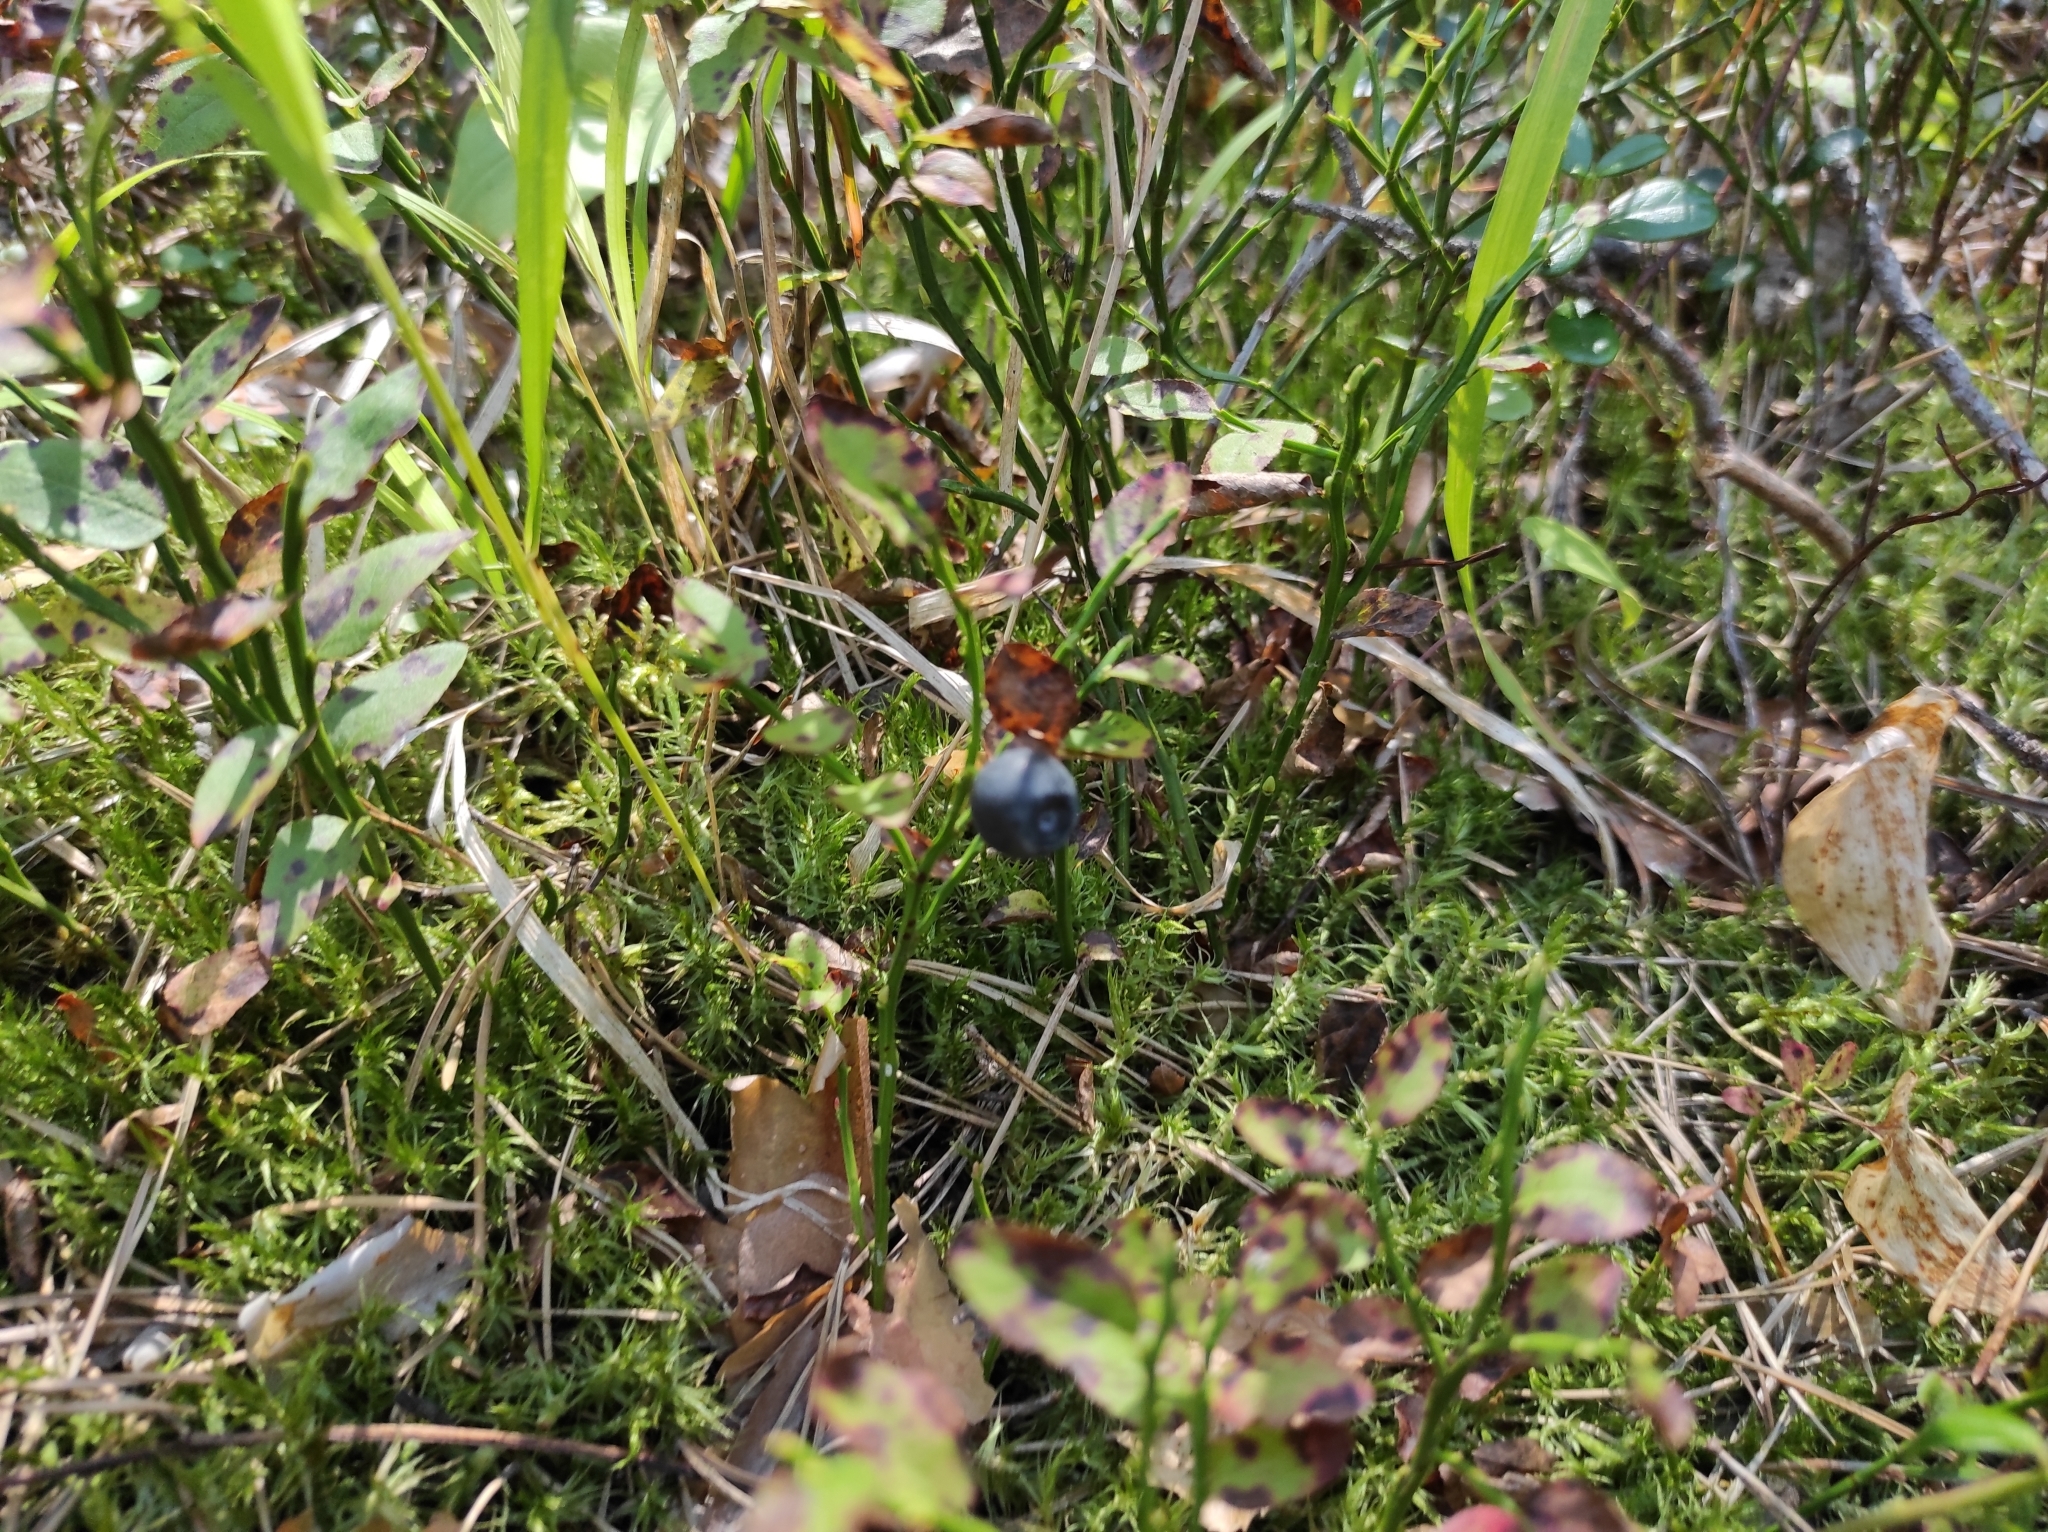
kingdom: Plantae
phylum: Tracheophyta
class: Magnoliopsida
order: Ericales
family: Ericaceae
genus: Vaccinium
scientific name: Vaccinium myrtillus
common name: Bilberry
